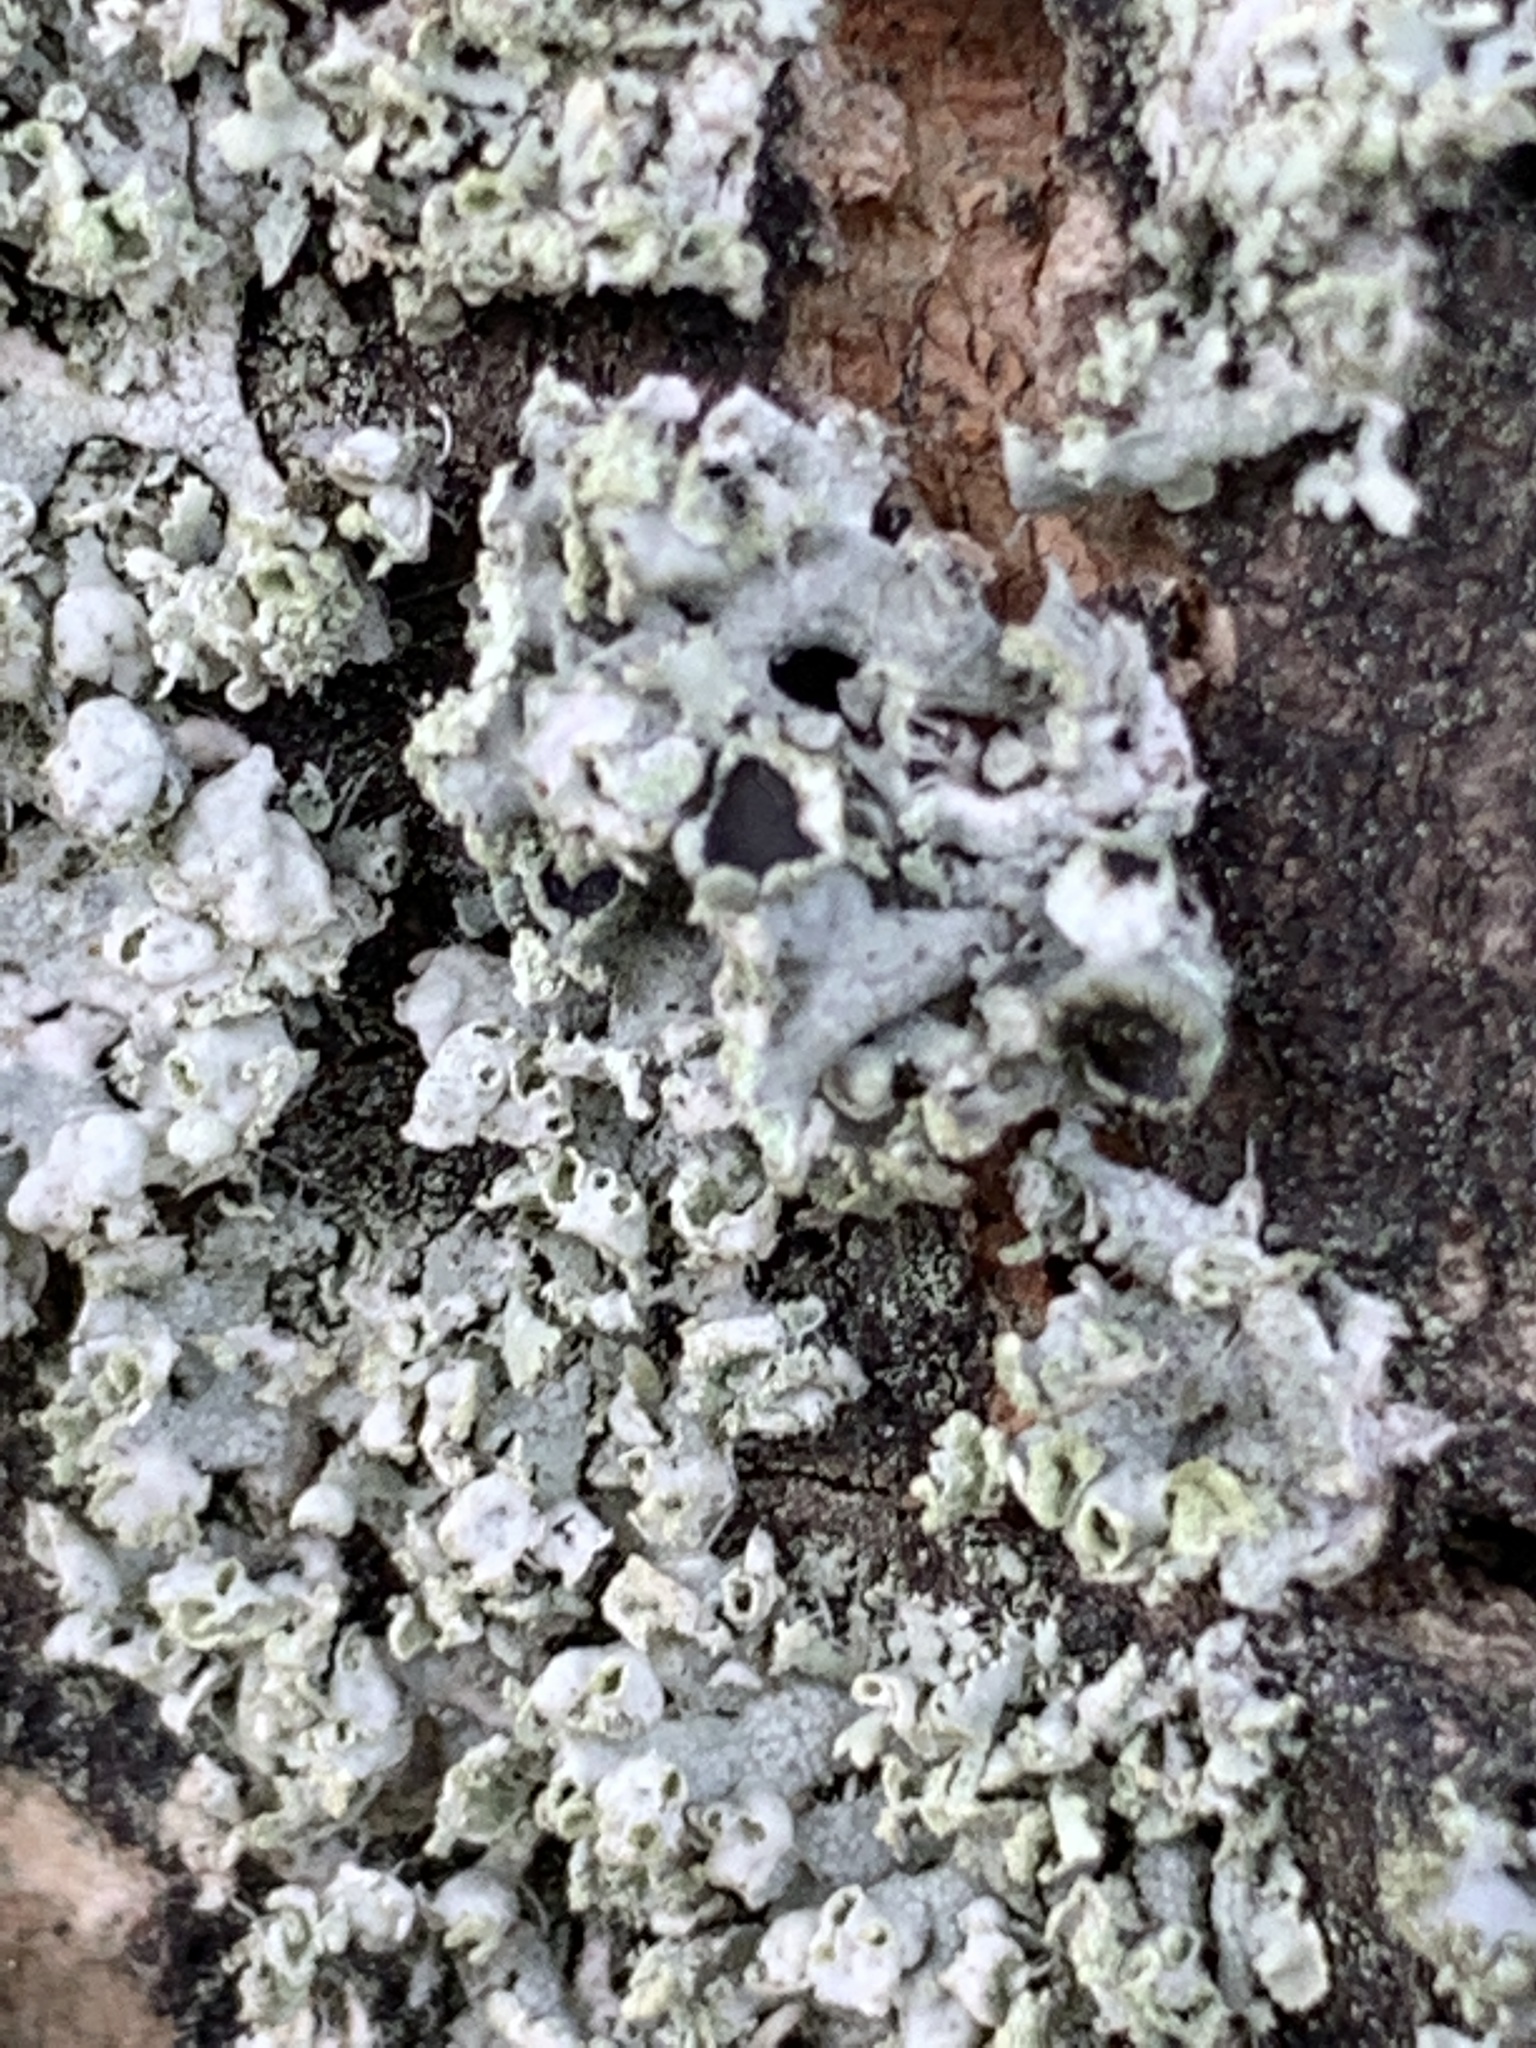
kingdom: Fungi
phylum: Ascomycota
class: Lecanoromycetes
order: Caliciales
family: Physciaceae
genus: Physcia
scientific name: Physcia adscendens
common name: Hooded rosette lichen
